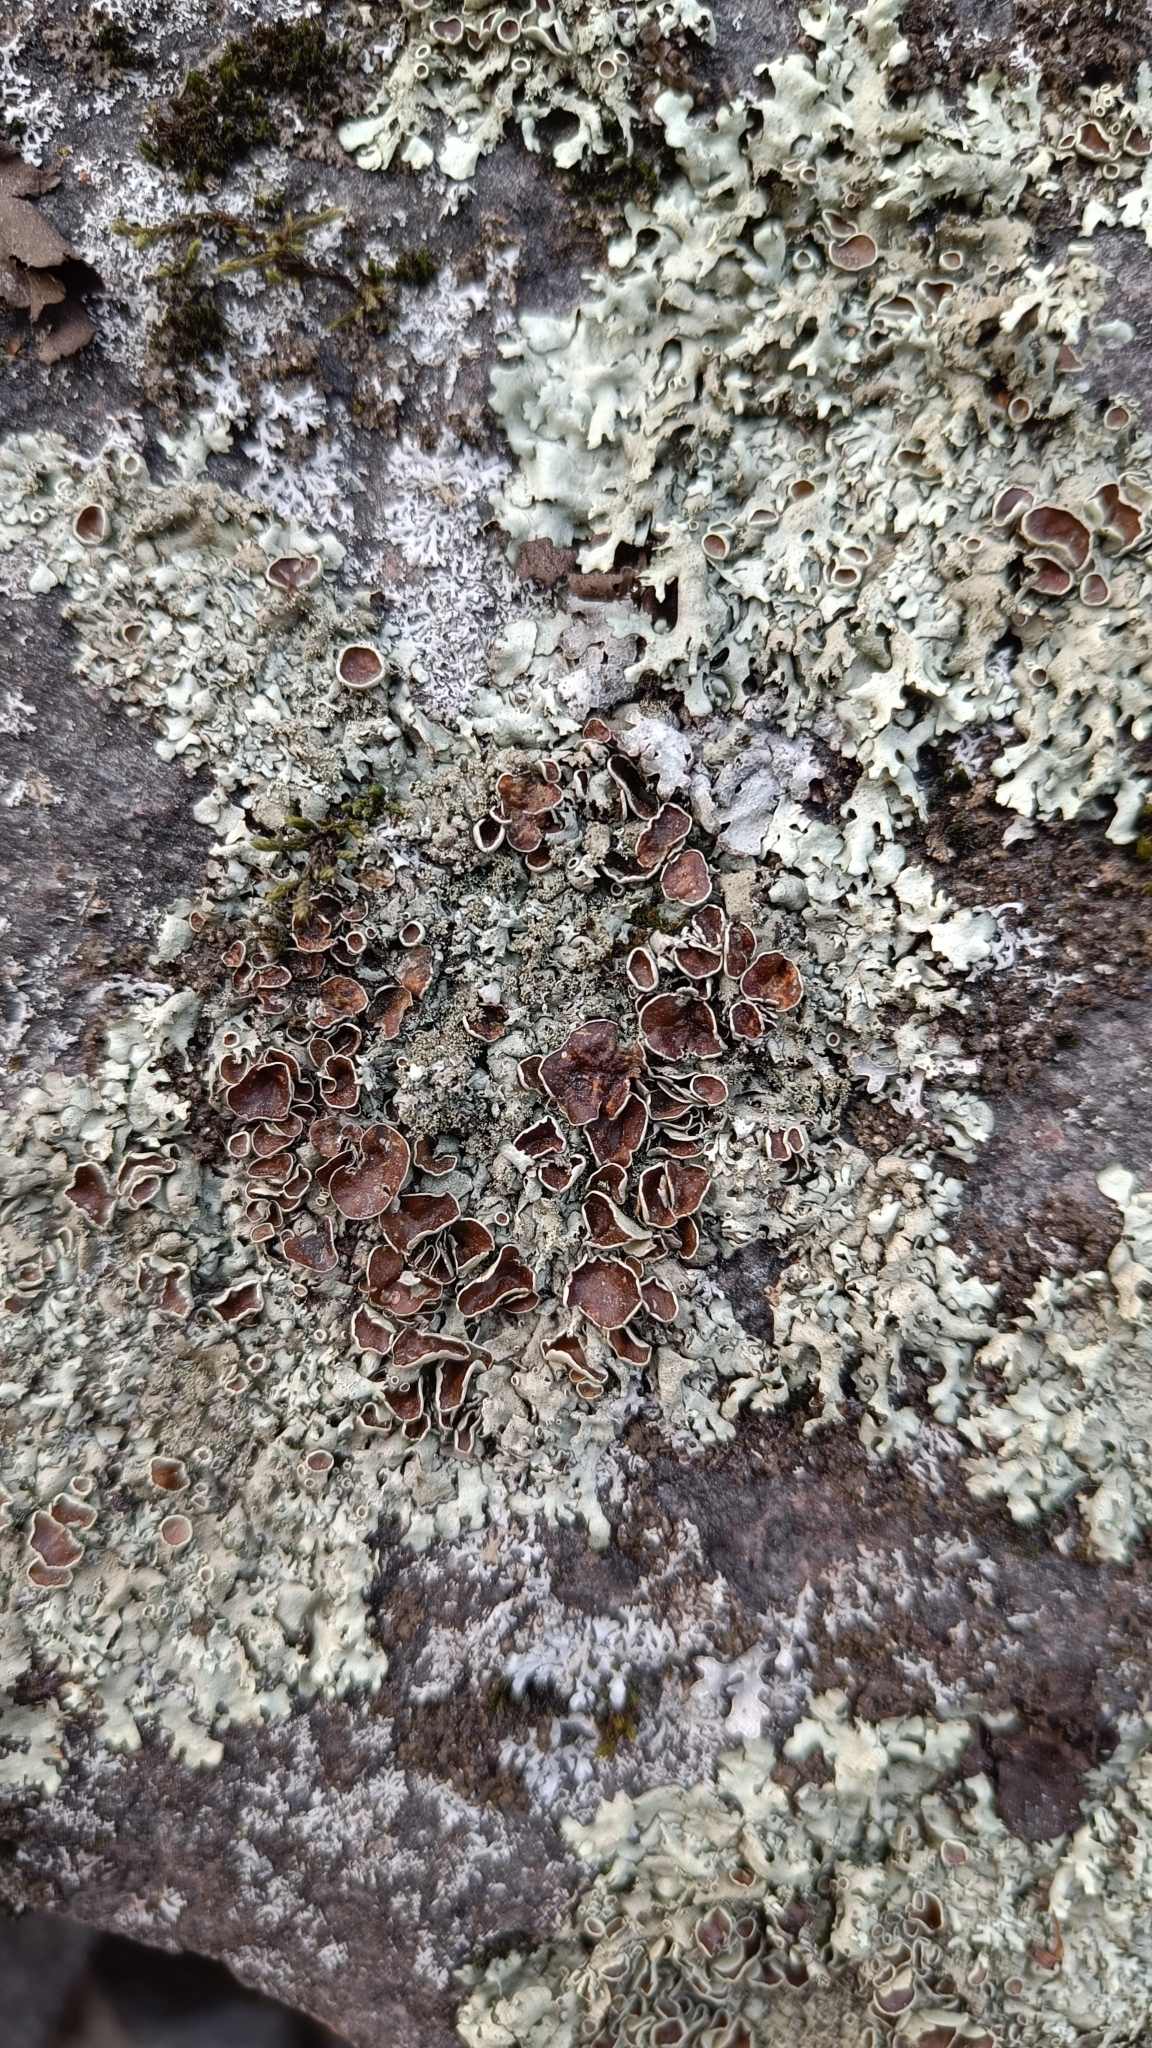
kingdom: Fungi
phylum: Ascomycota
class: Lecanoromycetes
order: Lecanorales
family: Parmeliaceae
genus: Xanthoparmelia
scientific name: Xanthoparmelia conspersa
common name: Peppered rock shield
